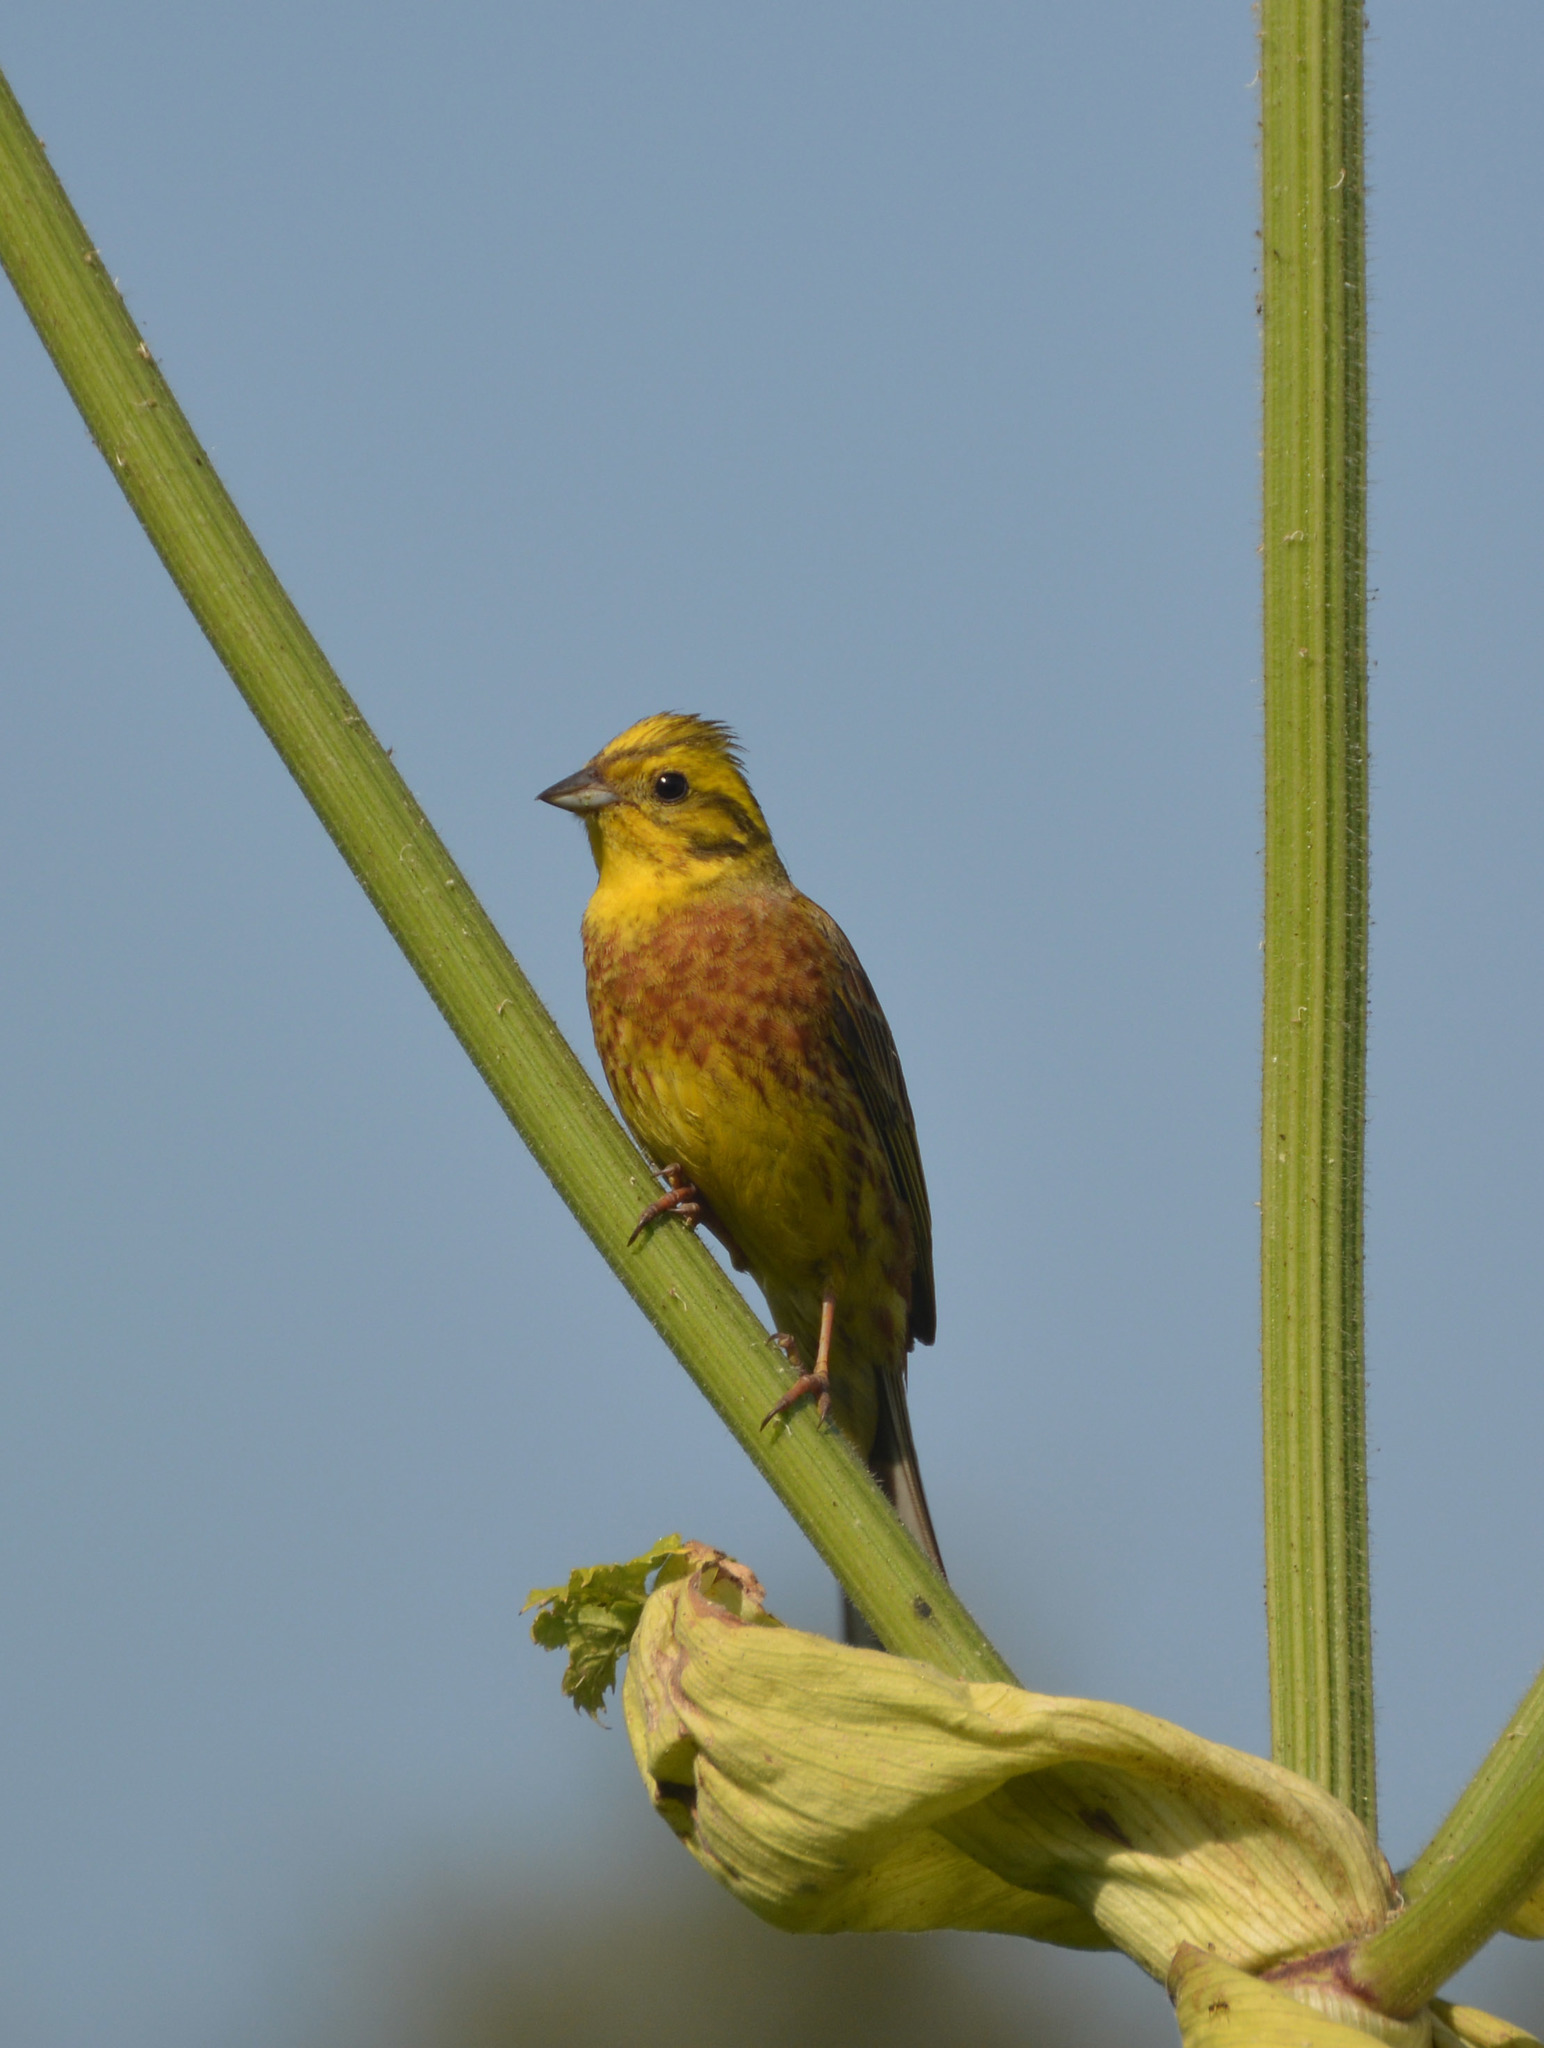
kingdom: Animalia
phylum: Chordata
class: Aves
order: Passeriformes
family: Emberizidae
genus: Emberiza
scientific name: Emberiza citrinella
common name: Yellowhammer
